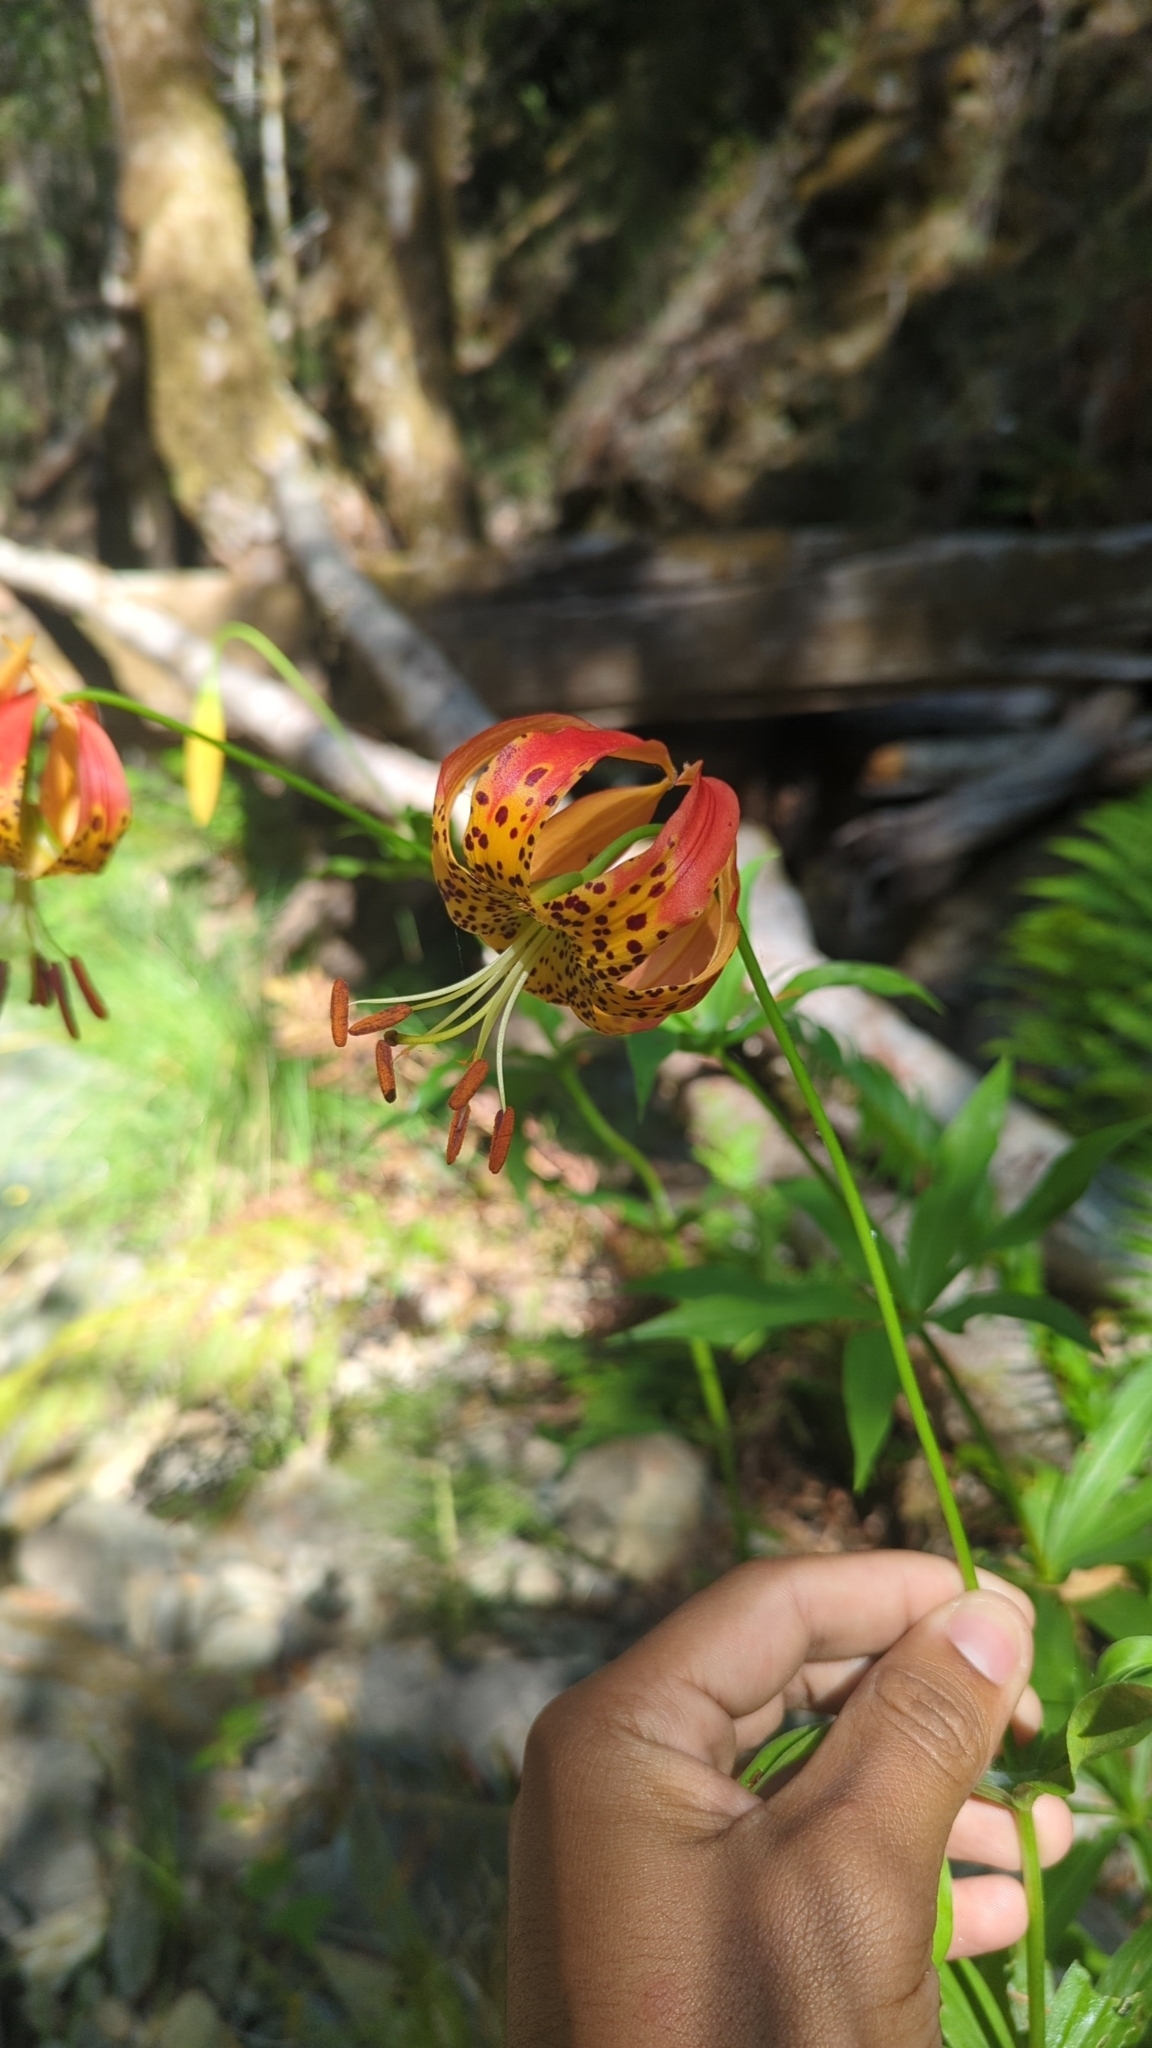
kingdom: Plantae
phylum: Tracheophyta
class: Liliopsida
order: Liliales
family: Liliaceae
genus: Lilium
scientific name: Lilium pardalinum
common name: Panther lily
